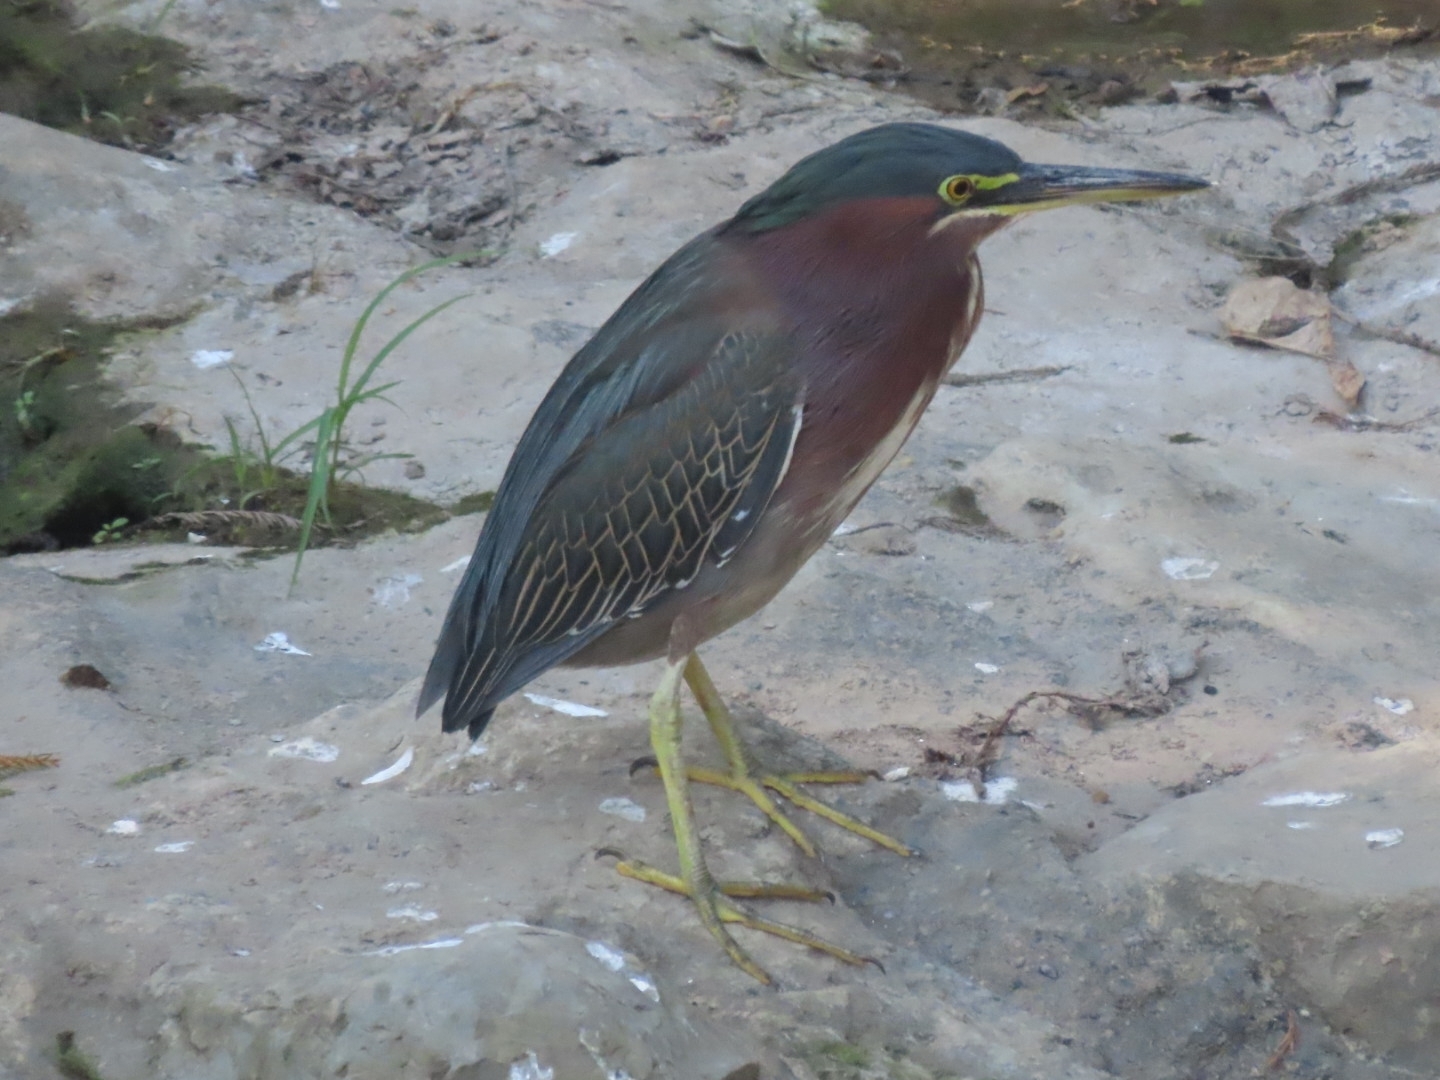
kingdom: Animalia
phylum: Chordata
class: Aves
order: Pelecaniformes
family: Ardeidae
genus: Butorides
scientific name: Butorides virescens
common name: Green heron
